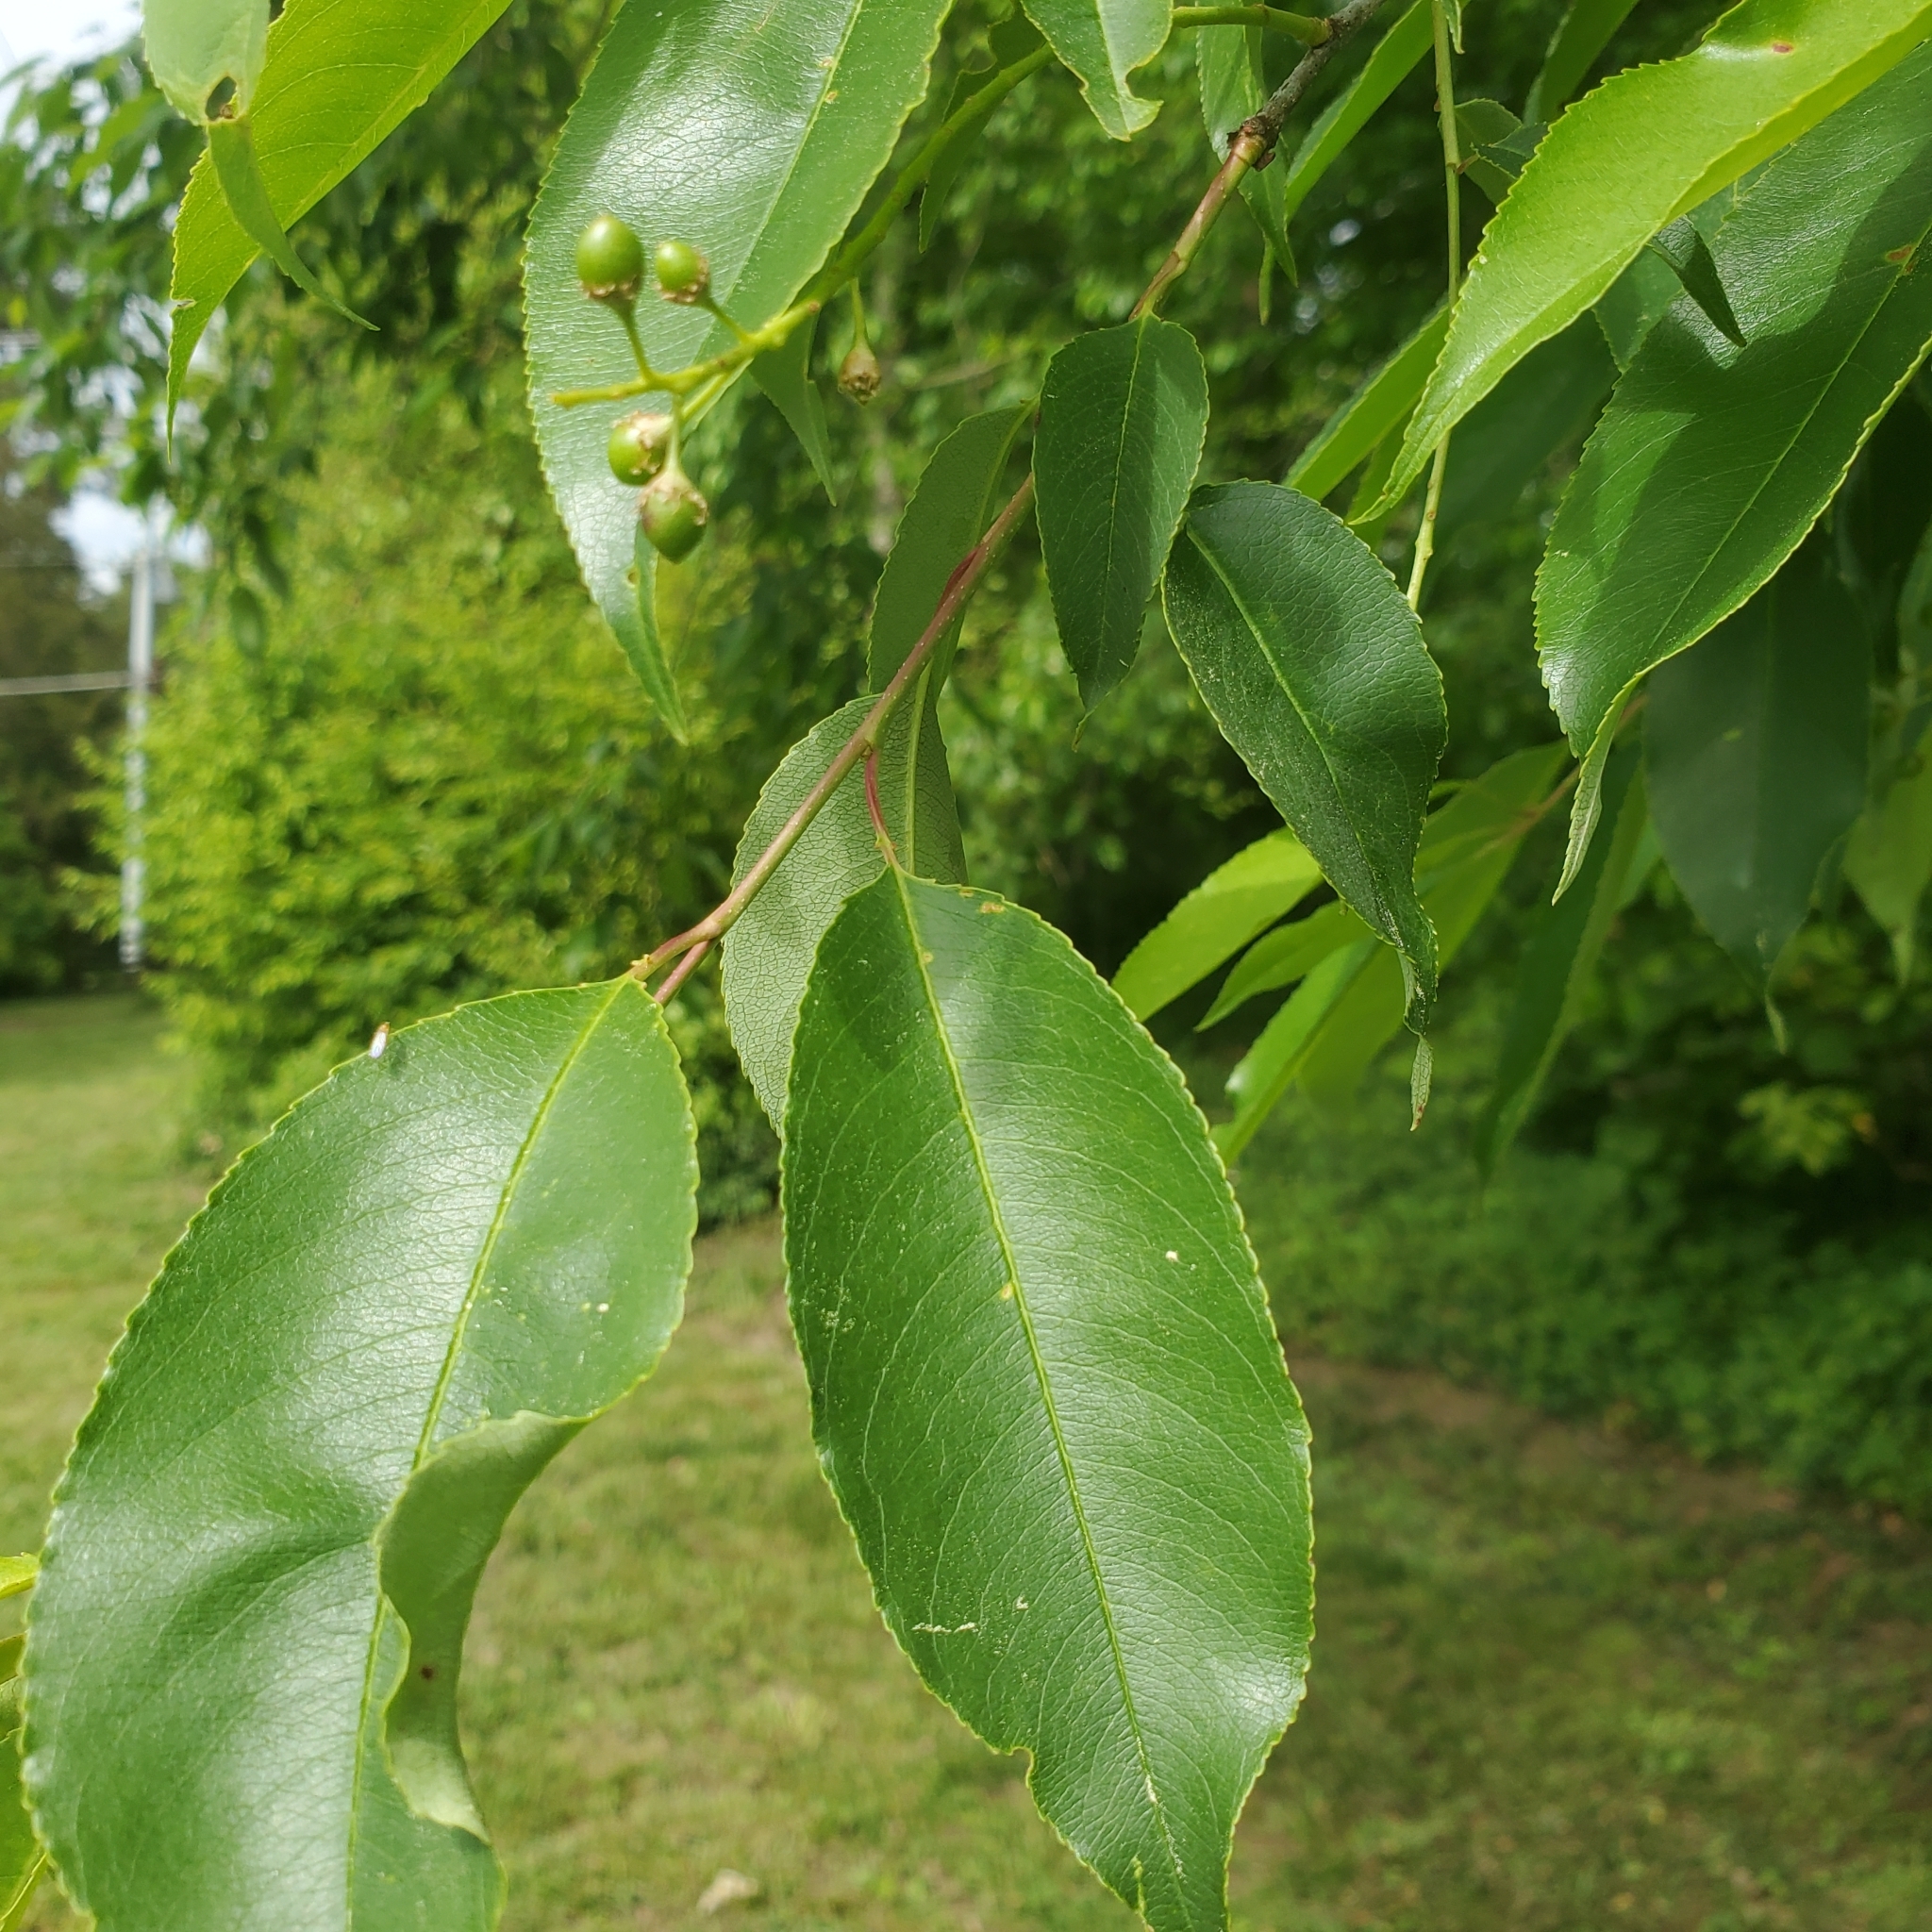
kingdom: Plantae
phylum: Tracheophyta
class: Magnoliopsida
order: Rosales
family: Rosaceae
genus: Prunus
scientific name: Prunus serotina
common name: Black cherry
